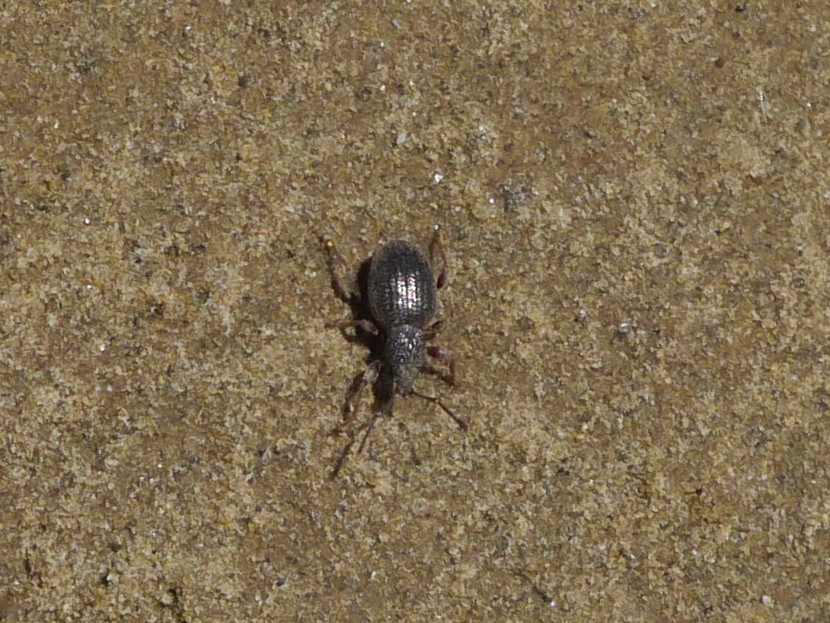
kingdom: Animalia
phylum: Arthropoda
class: Insecta
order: Coleoptera
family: Curculionidae
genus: Otiorhynchus
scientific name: Otiorhynchus ovatus
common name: Strawberry root weevil
